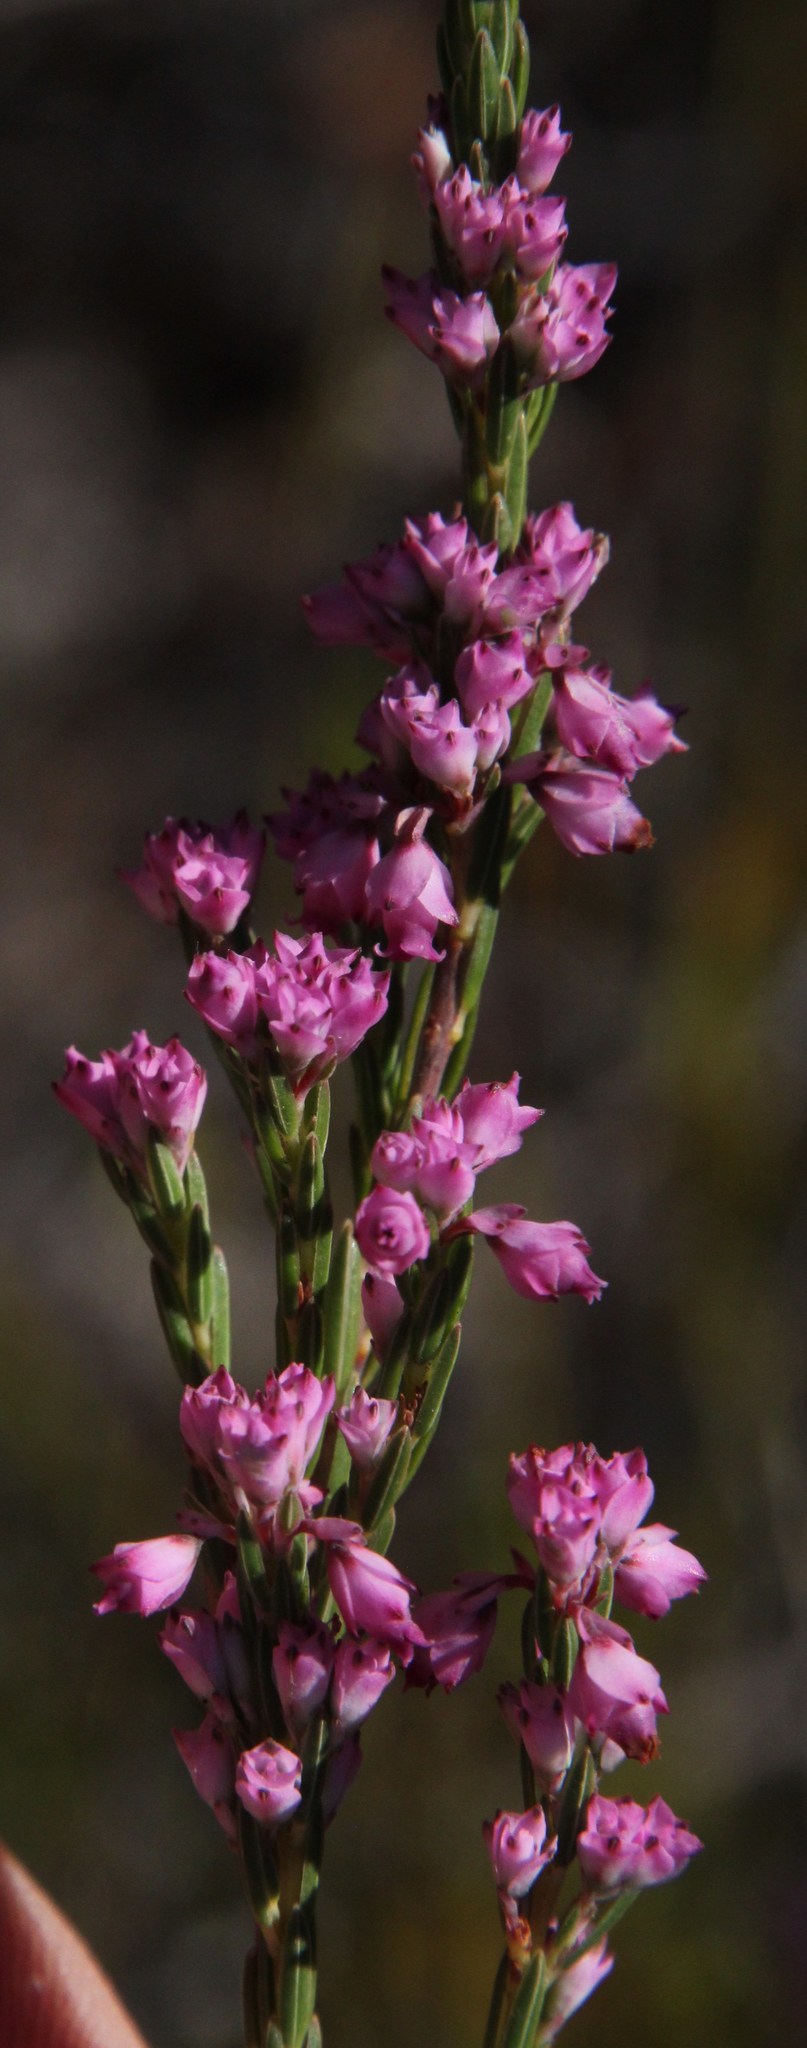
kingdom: Plantae
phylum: Tracheophyta
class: Magnoliopsida
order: Ericales
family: Ericaceae
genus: Erica
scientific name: Erica corifolia
